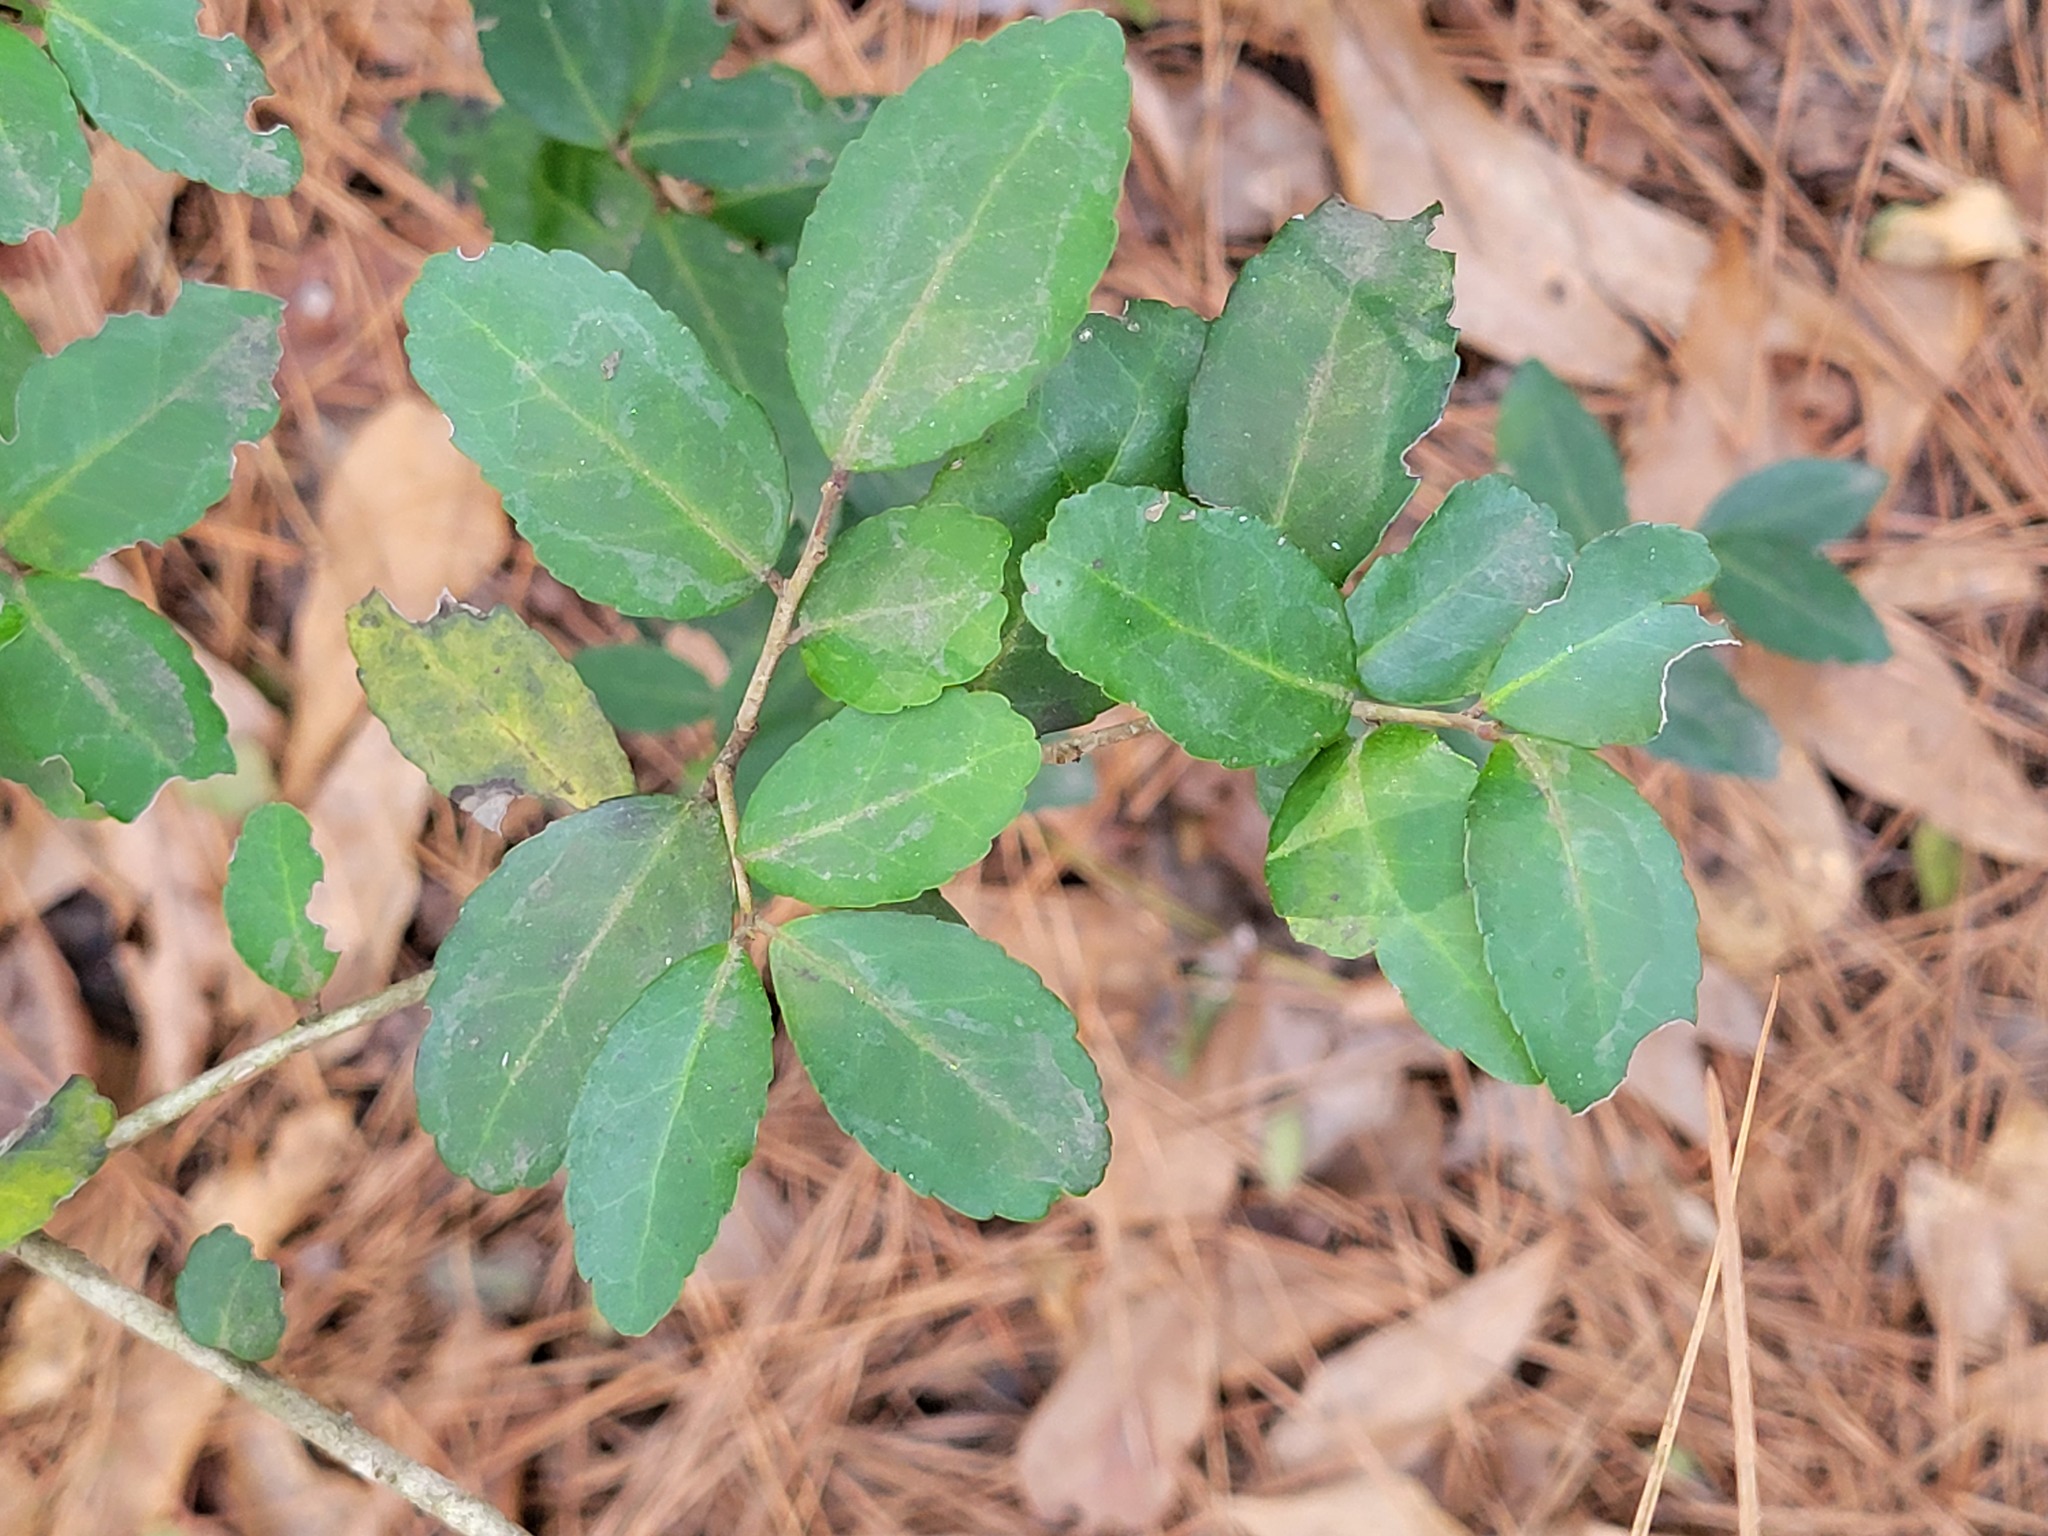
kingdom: Plantae
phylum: Tracheophyta
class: Magnoliopsida
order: Aquifoliales
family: Aquifoliaceae
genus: Ilex
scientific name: Ilex vomitoria
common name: Yaupon holly
